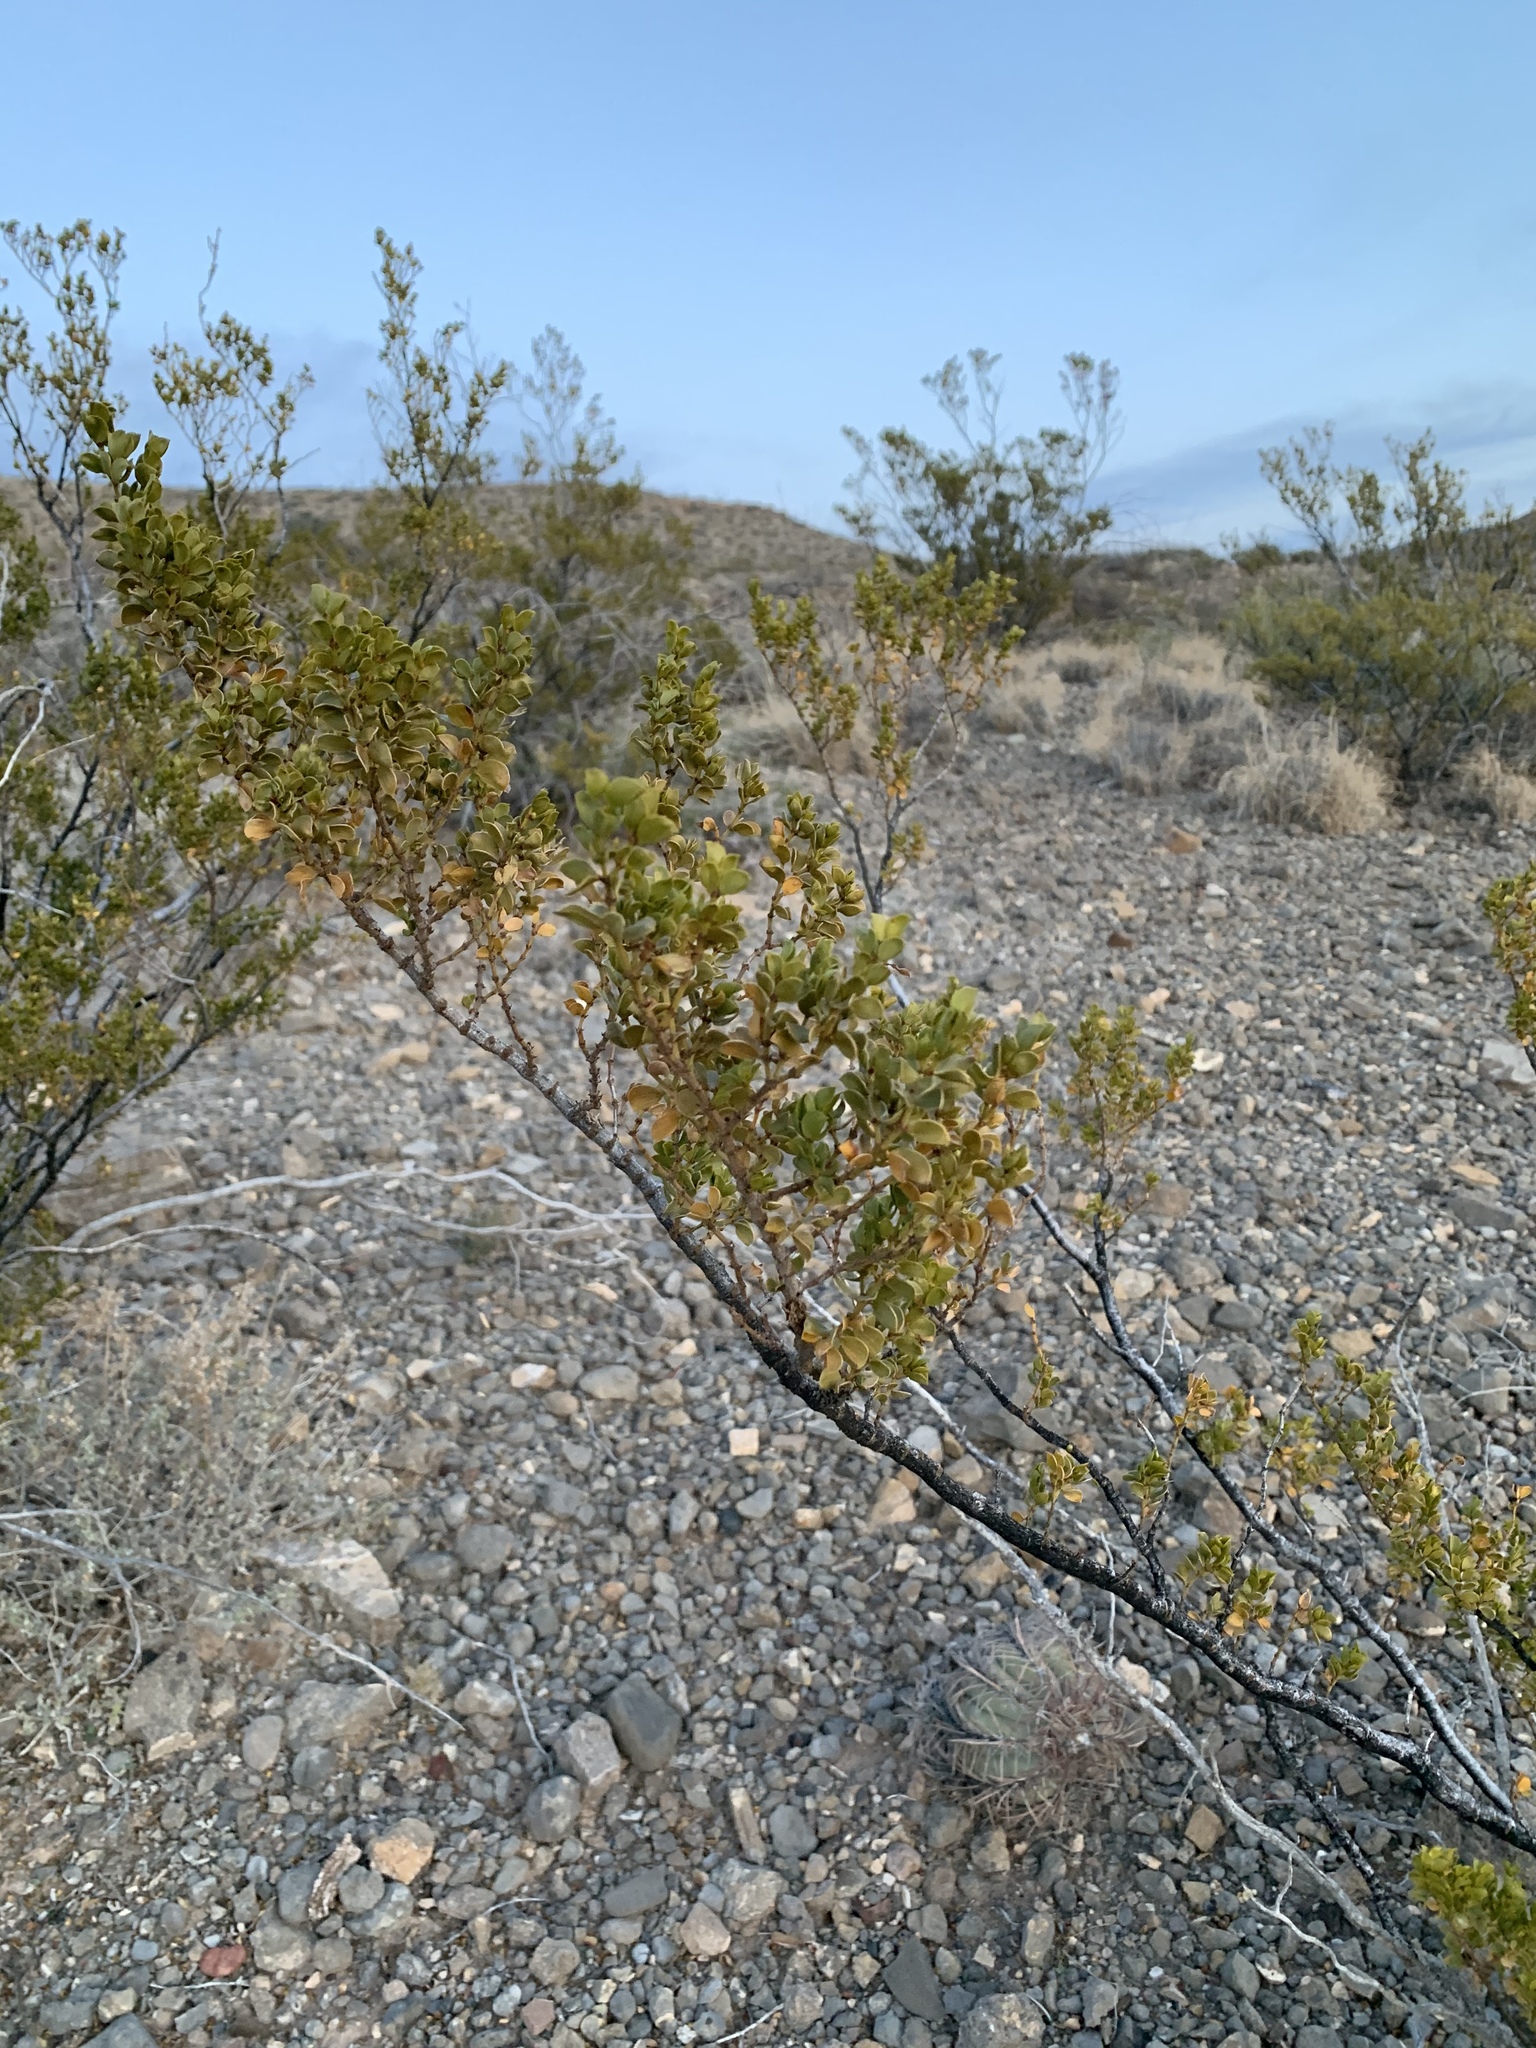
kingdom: Plantae
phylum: Tracheophyta
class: Magnoliopsida
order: Zygophyllales
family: Zygophyllaceae
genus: Larrea
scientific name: Larrea tridentata
